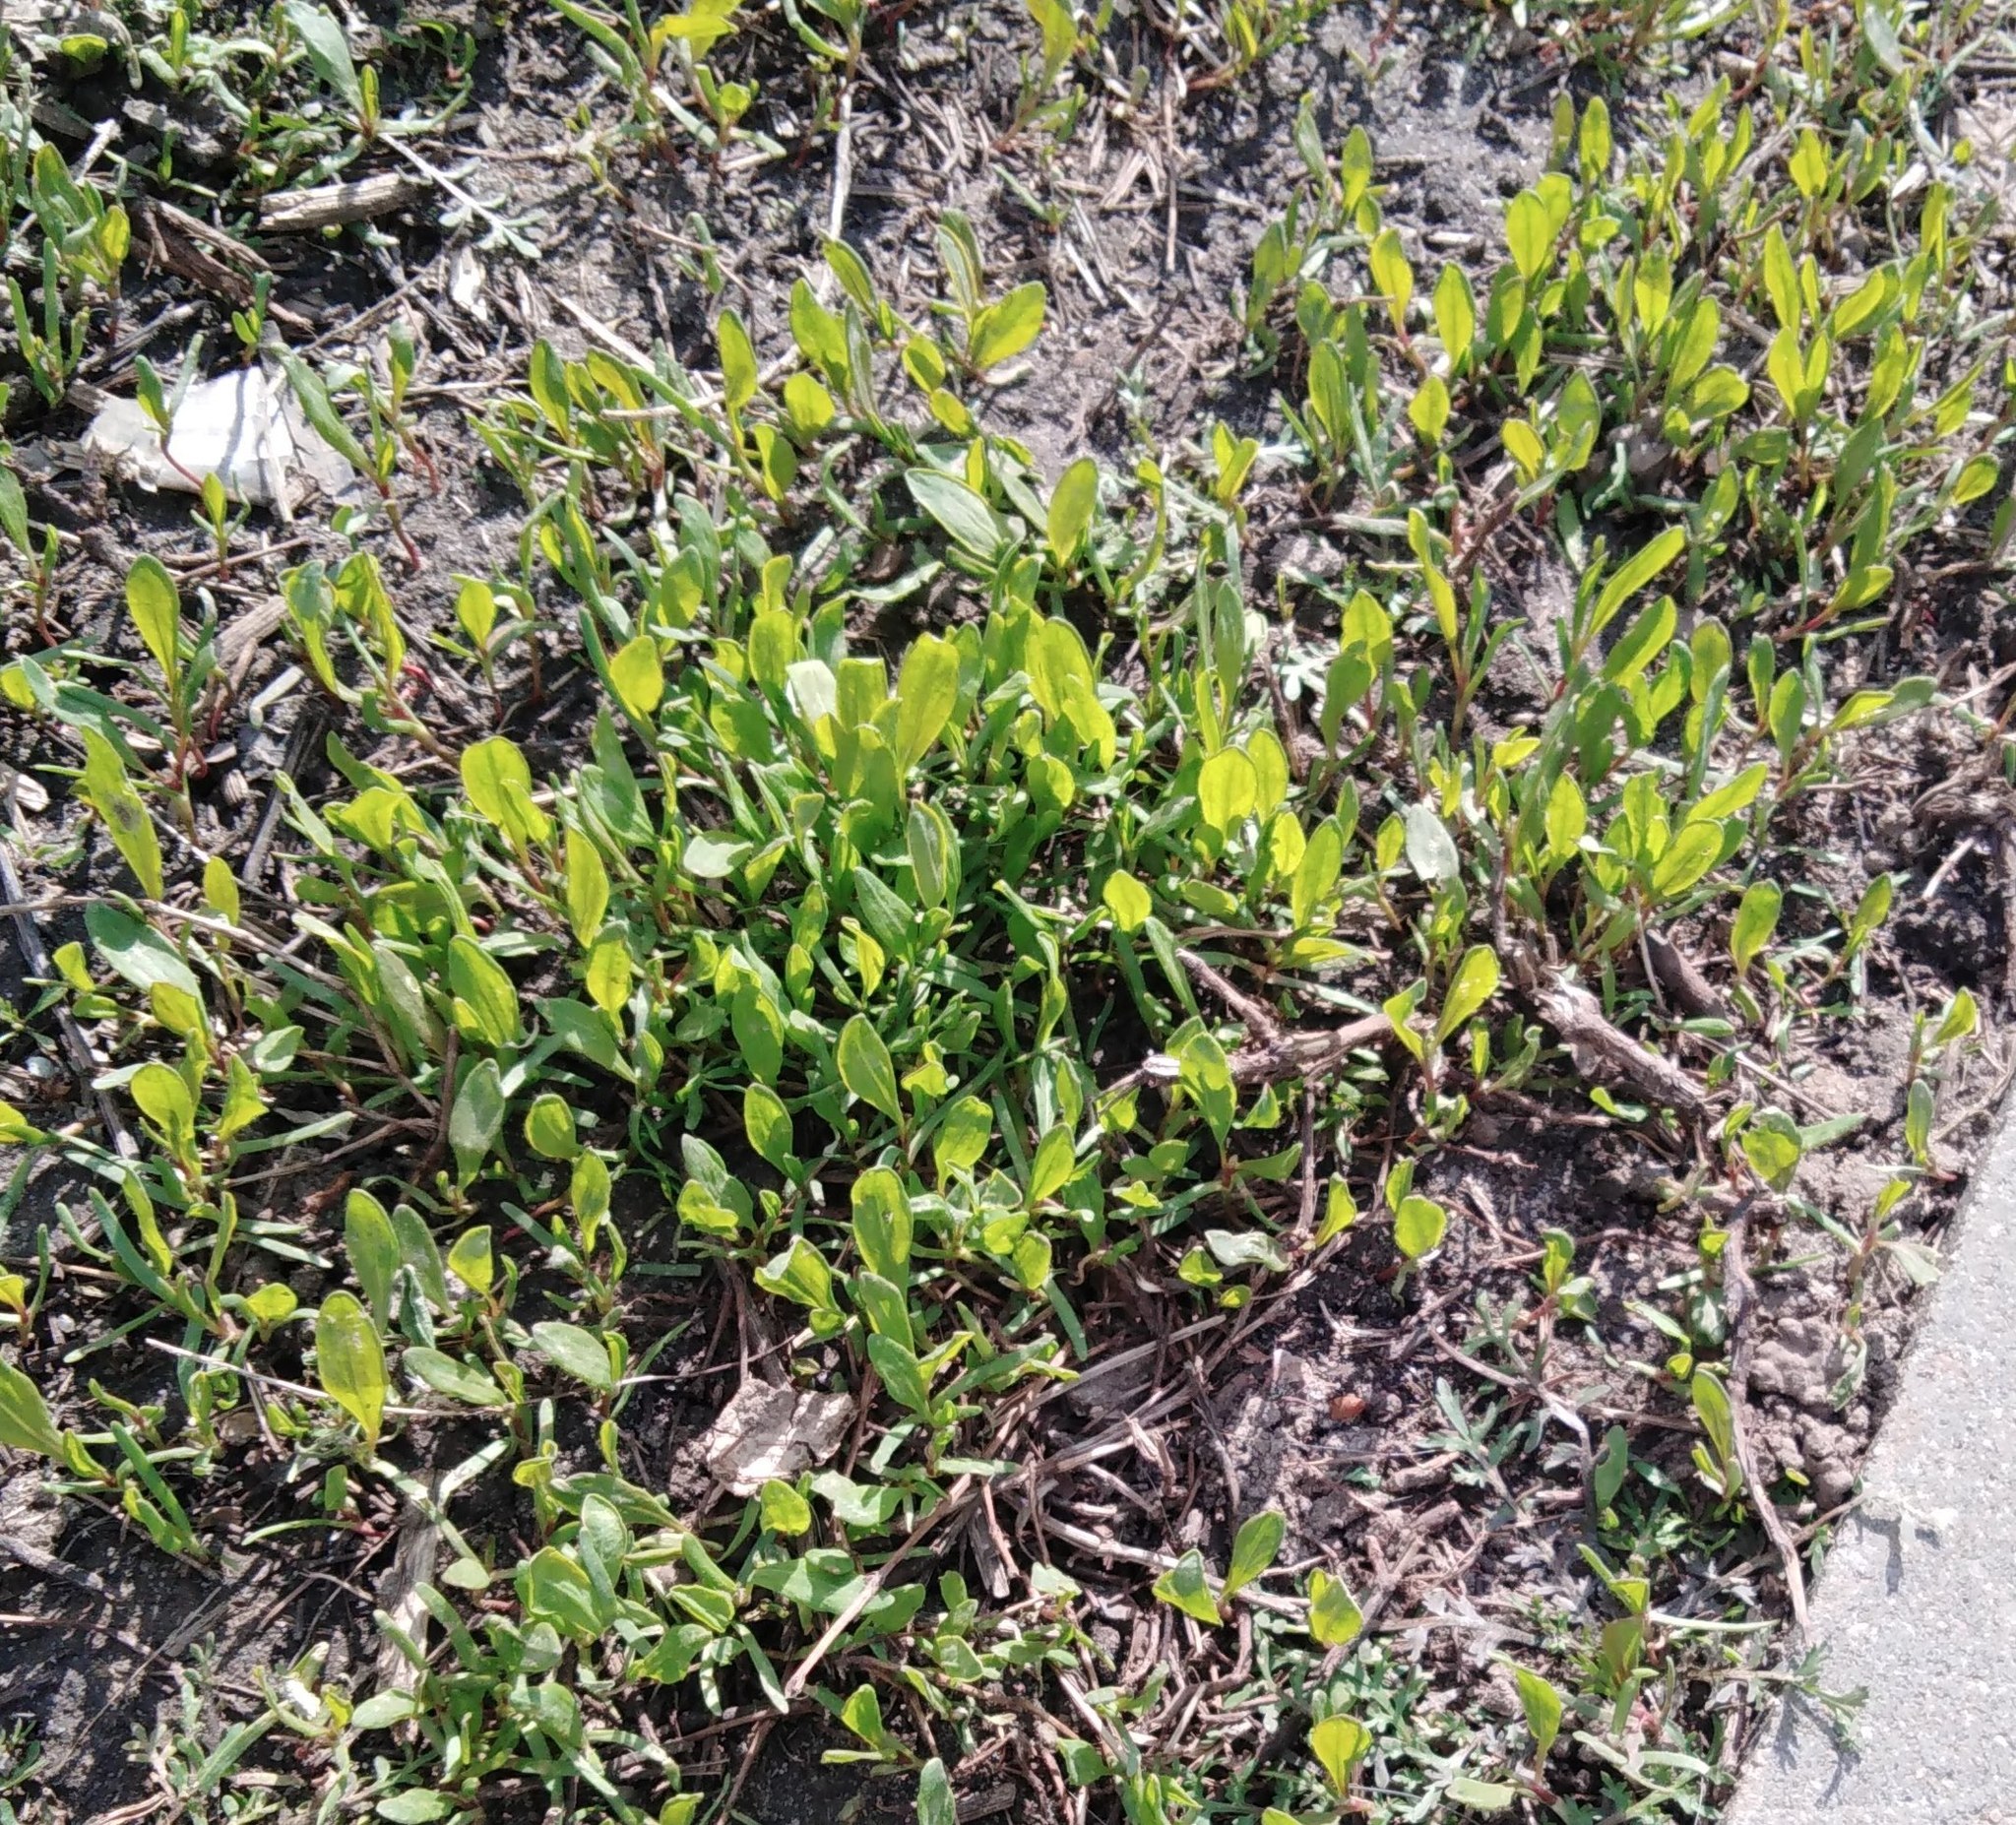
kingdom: Plantae
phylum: Tracheophyta
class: Magnoliopsida
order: Caryophyllales
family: Polygonaceae
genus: Polygonum
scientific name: Polygonum
